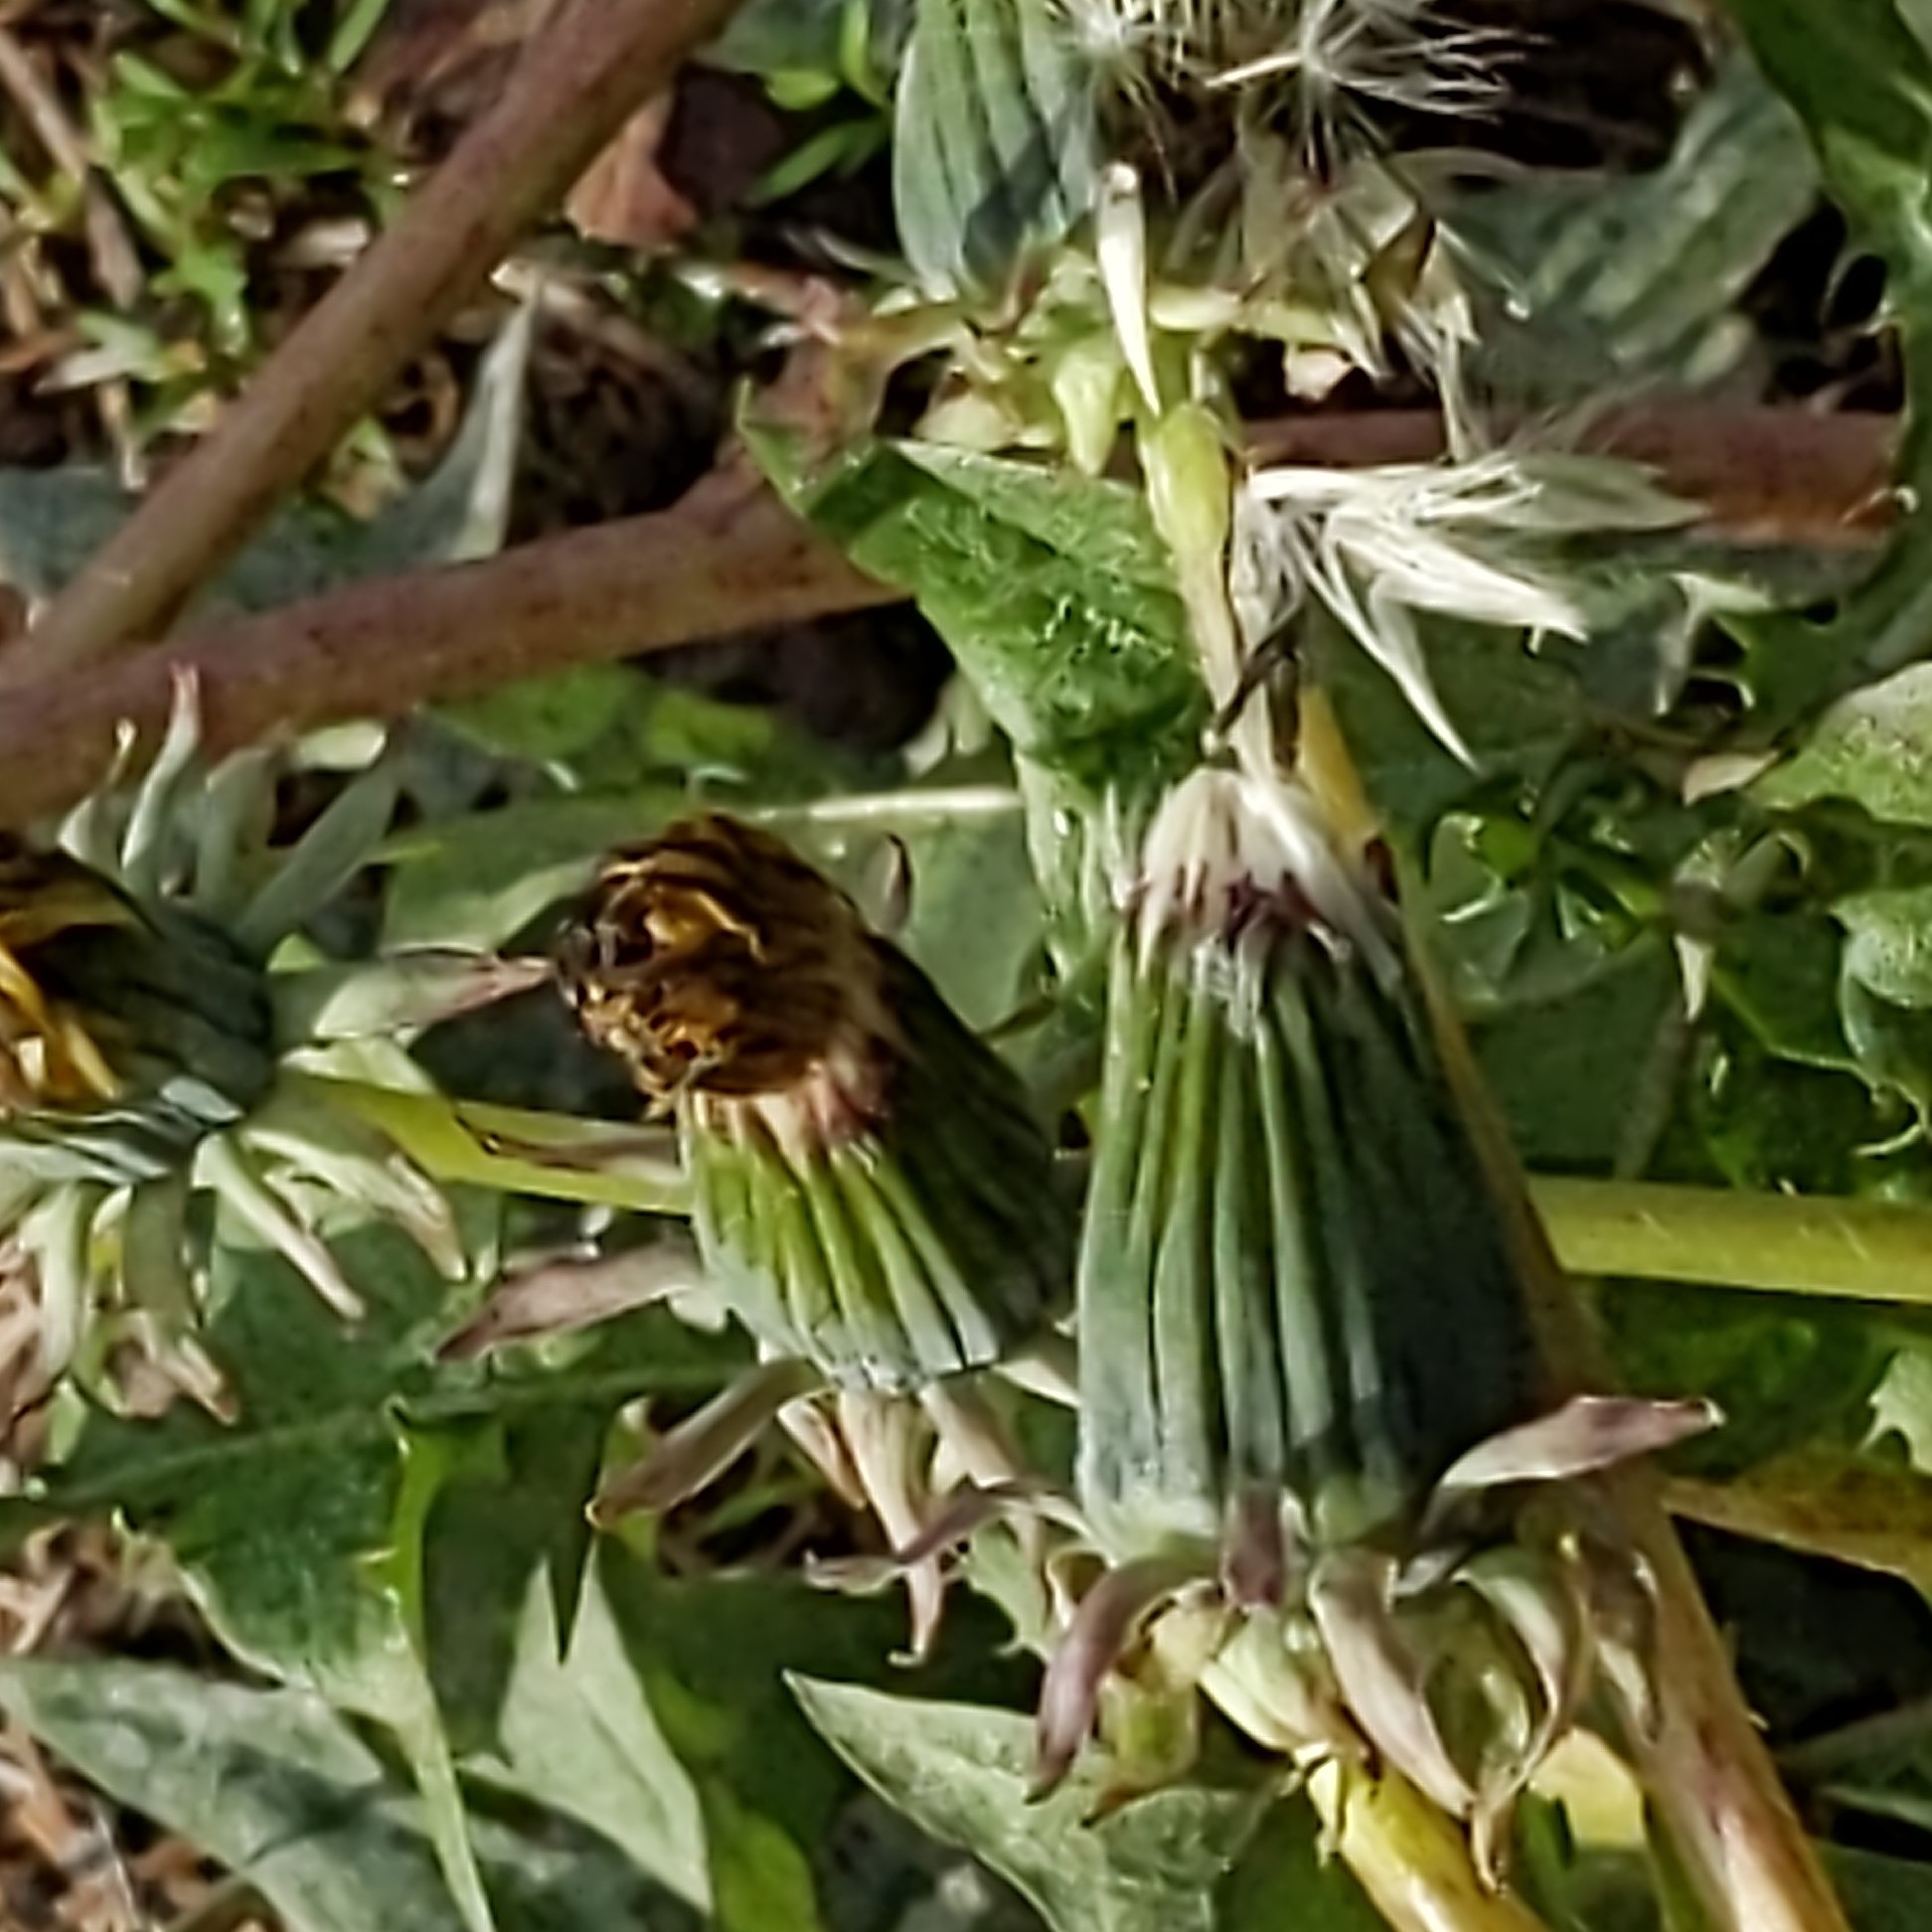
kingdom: Plantae
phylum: Tracheophyta
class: Magnoliopsida
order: Asterales
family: Asteraceae
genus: Taraxacum
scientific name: Taraxacum
